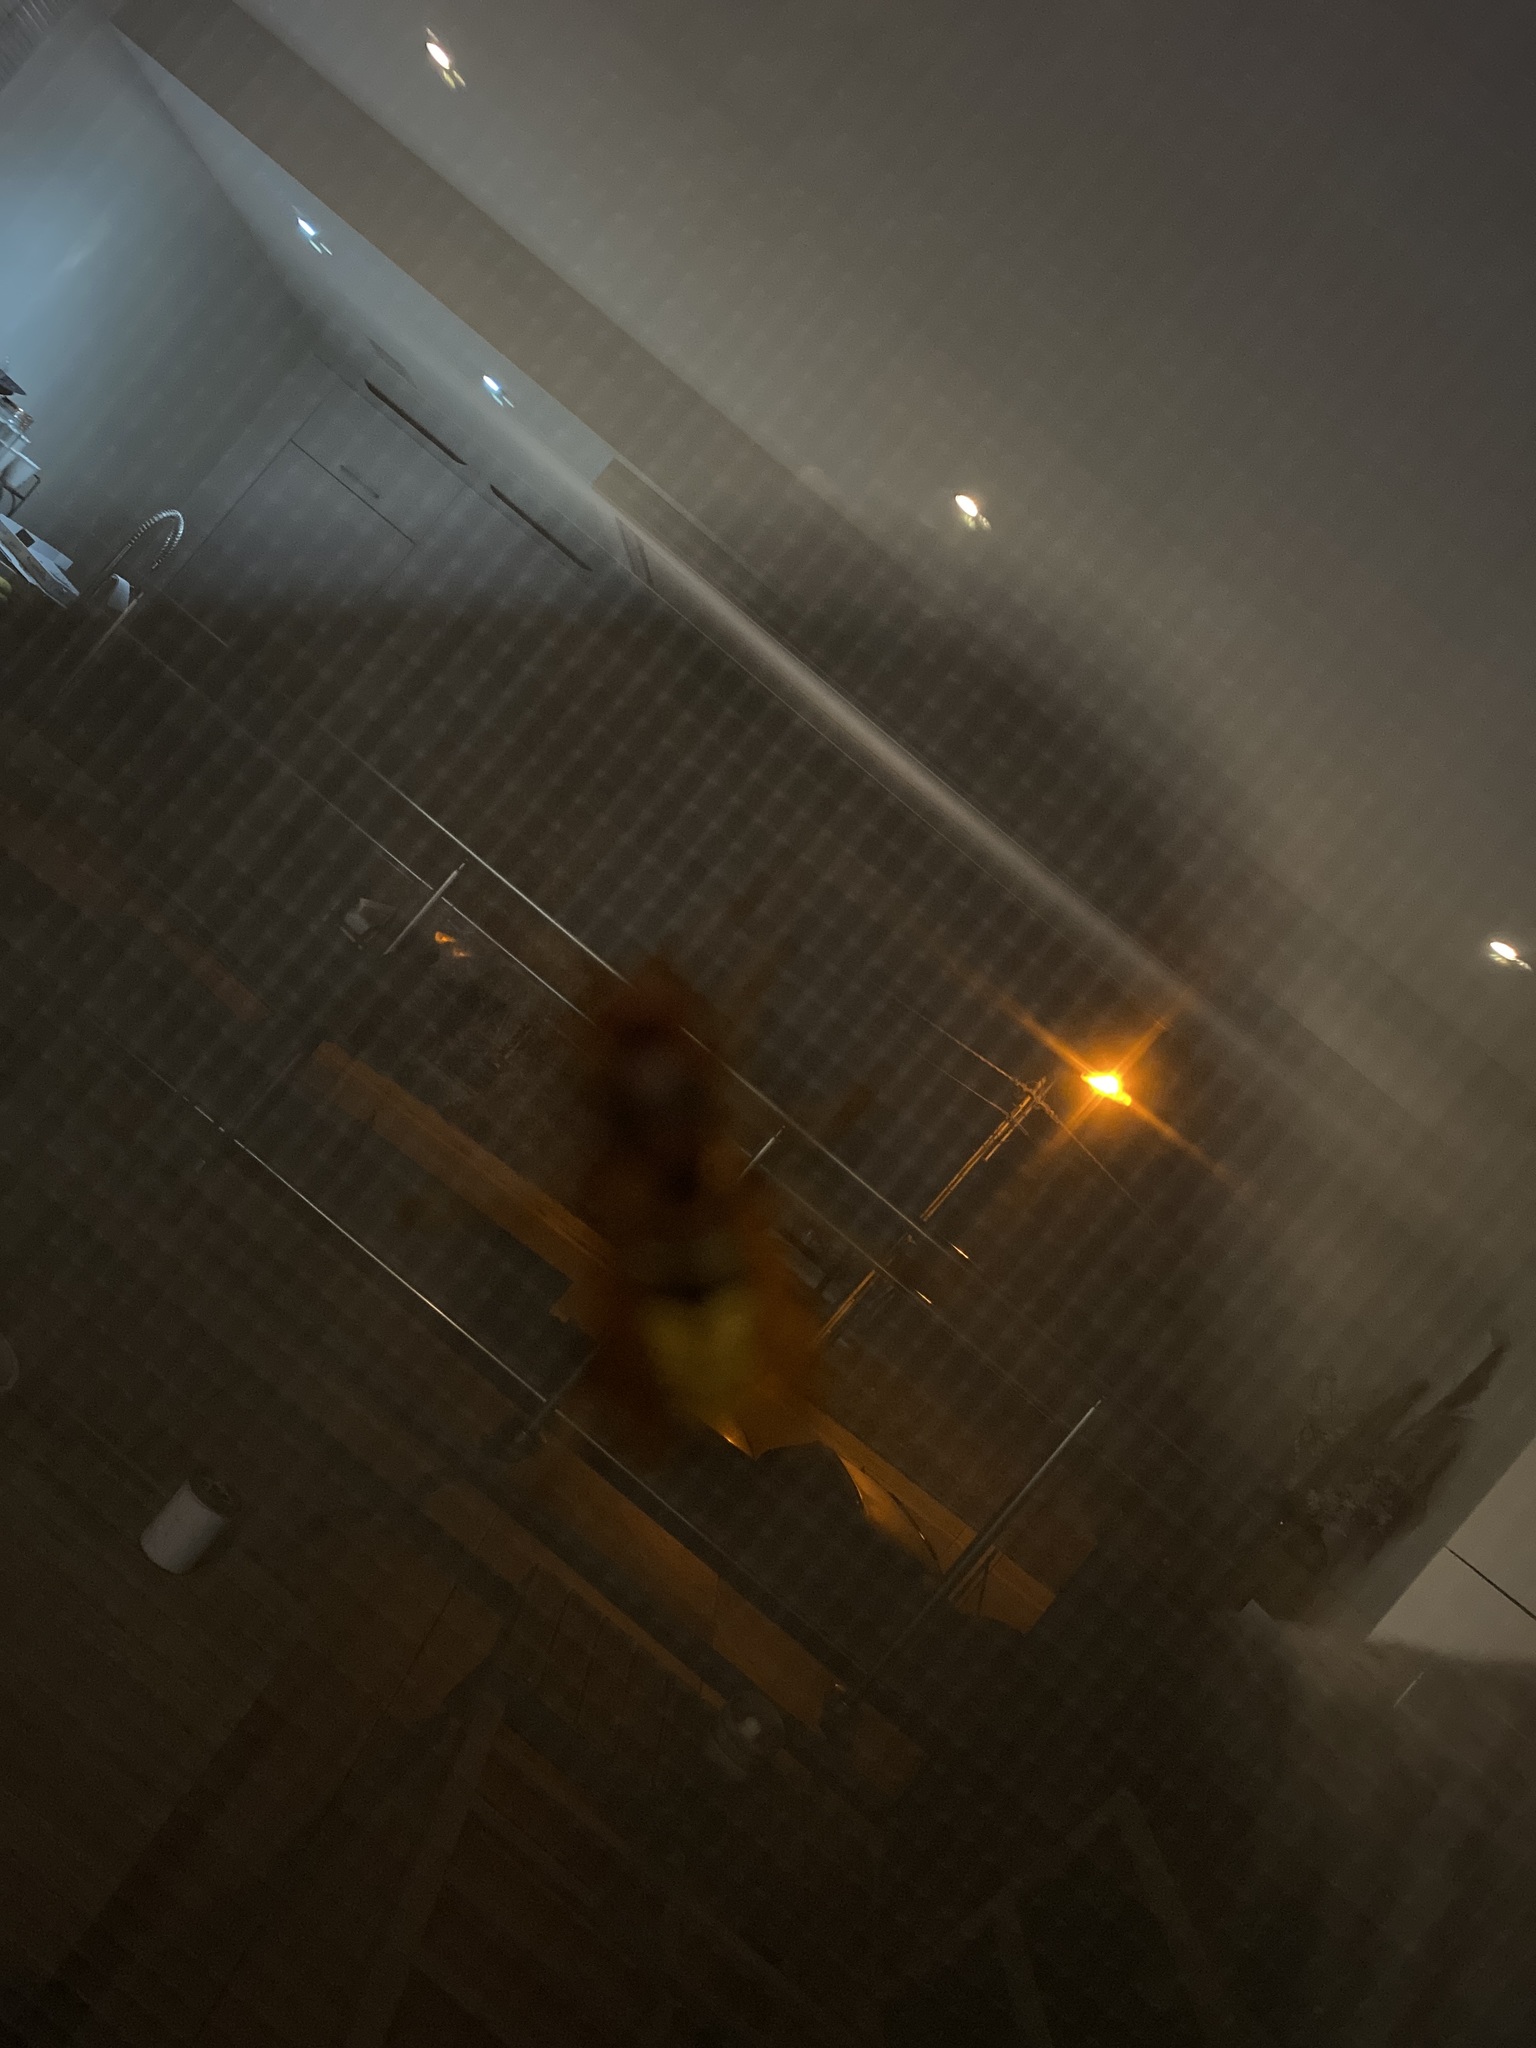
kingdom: Animalia
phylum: Arthropoda
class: Insecta
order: Hymenoptera
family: Vespidae
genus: Vespa
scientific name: Vespa crabro
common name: Hornet
